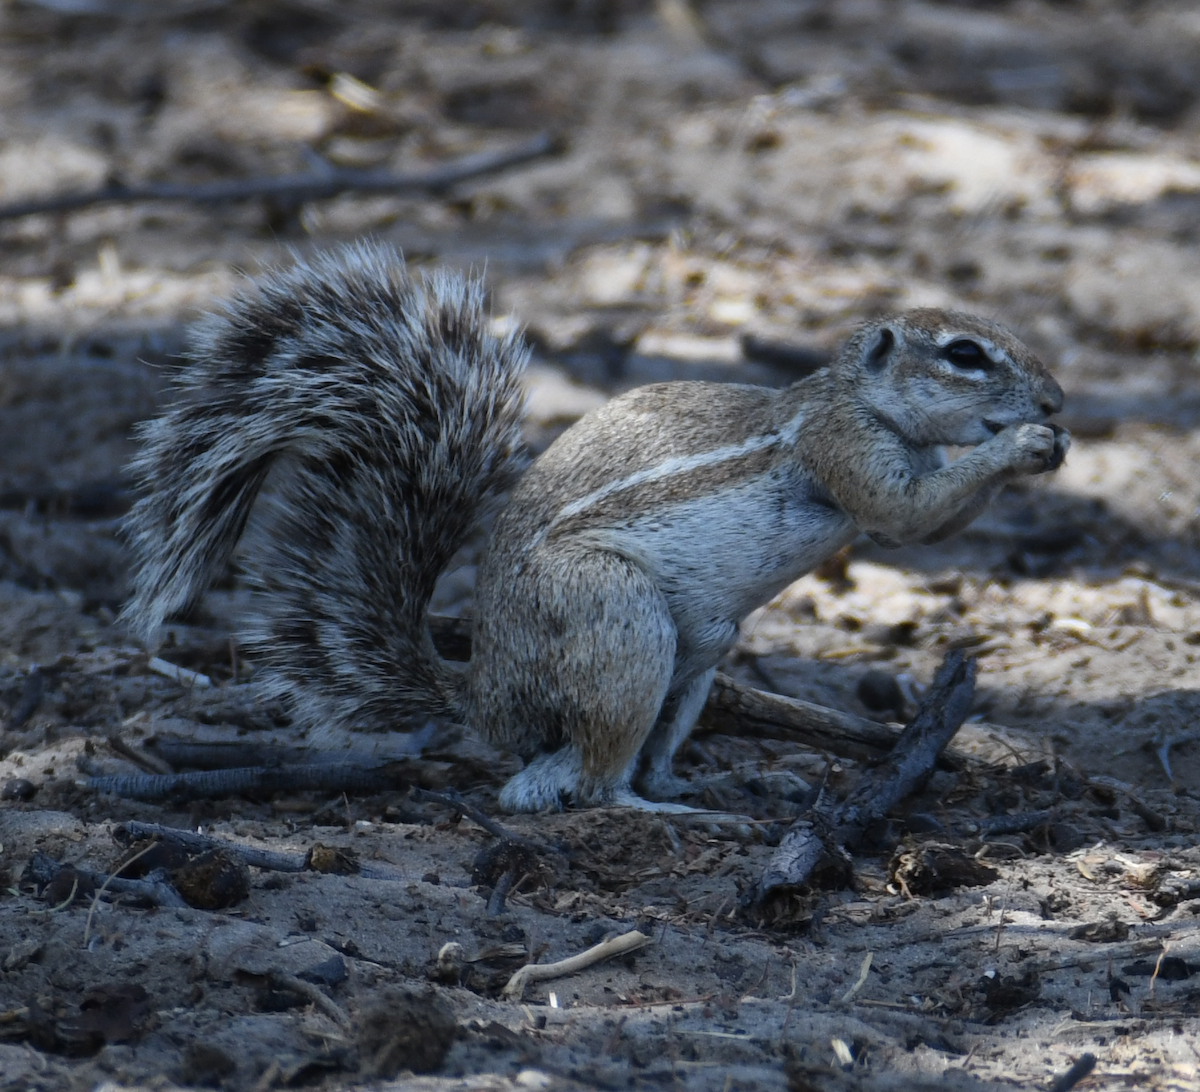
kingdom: Animalia
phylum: Chordata
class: Mammalia
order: Rodentia
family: Sciuridae
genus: Xerus
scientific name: Xerus inauris
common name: South african ground squirrel
